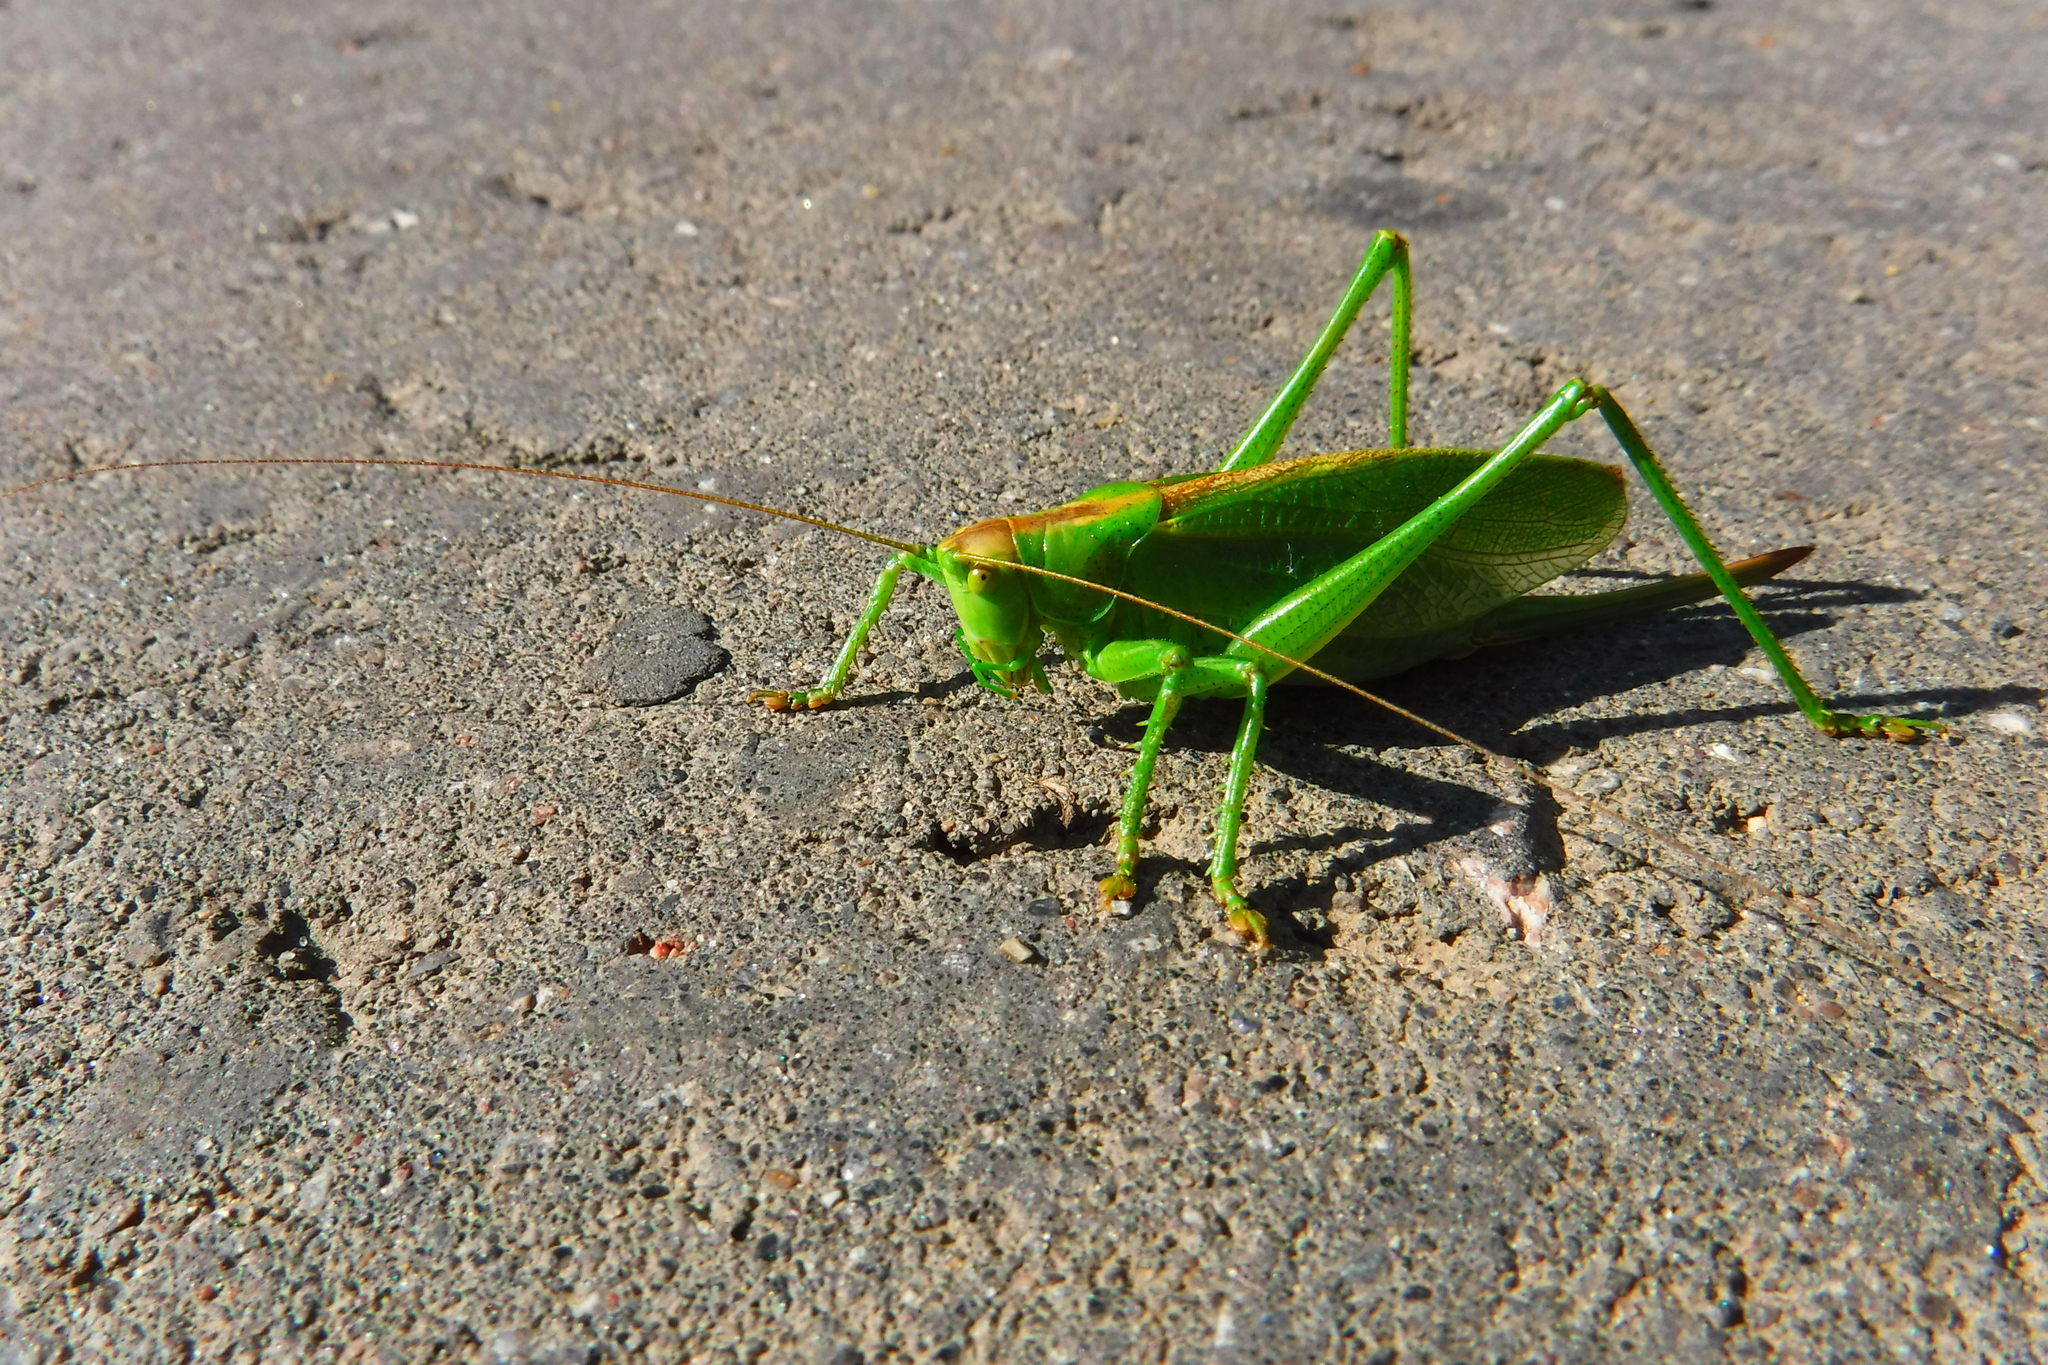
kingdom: Animalia
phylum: Arthropoda
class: Insecta
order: Orthoptera
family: Tettigoniidae
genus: Tettigonia
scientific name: Tettigonia cantans
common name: Upland green bush-cricket
